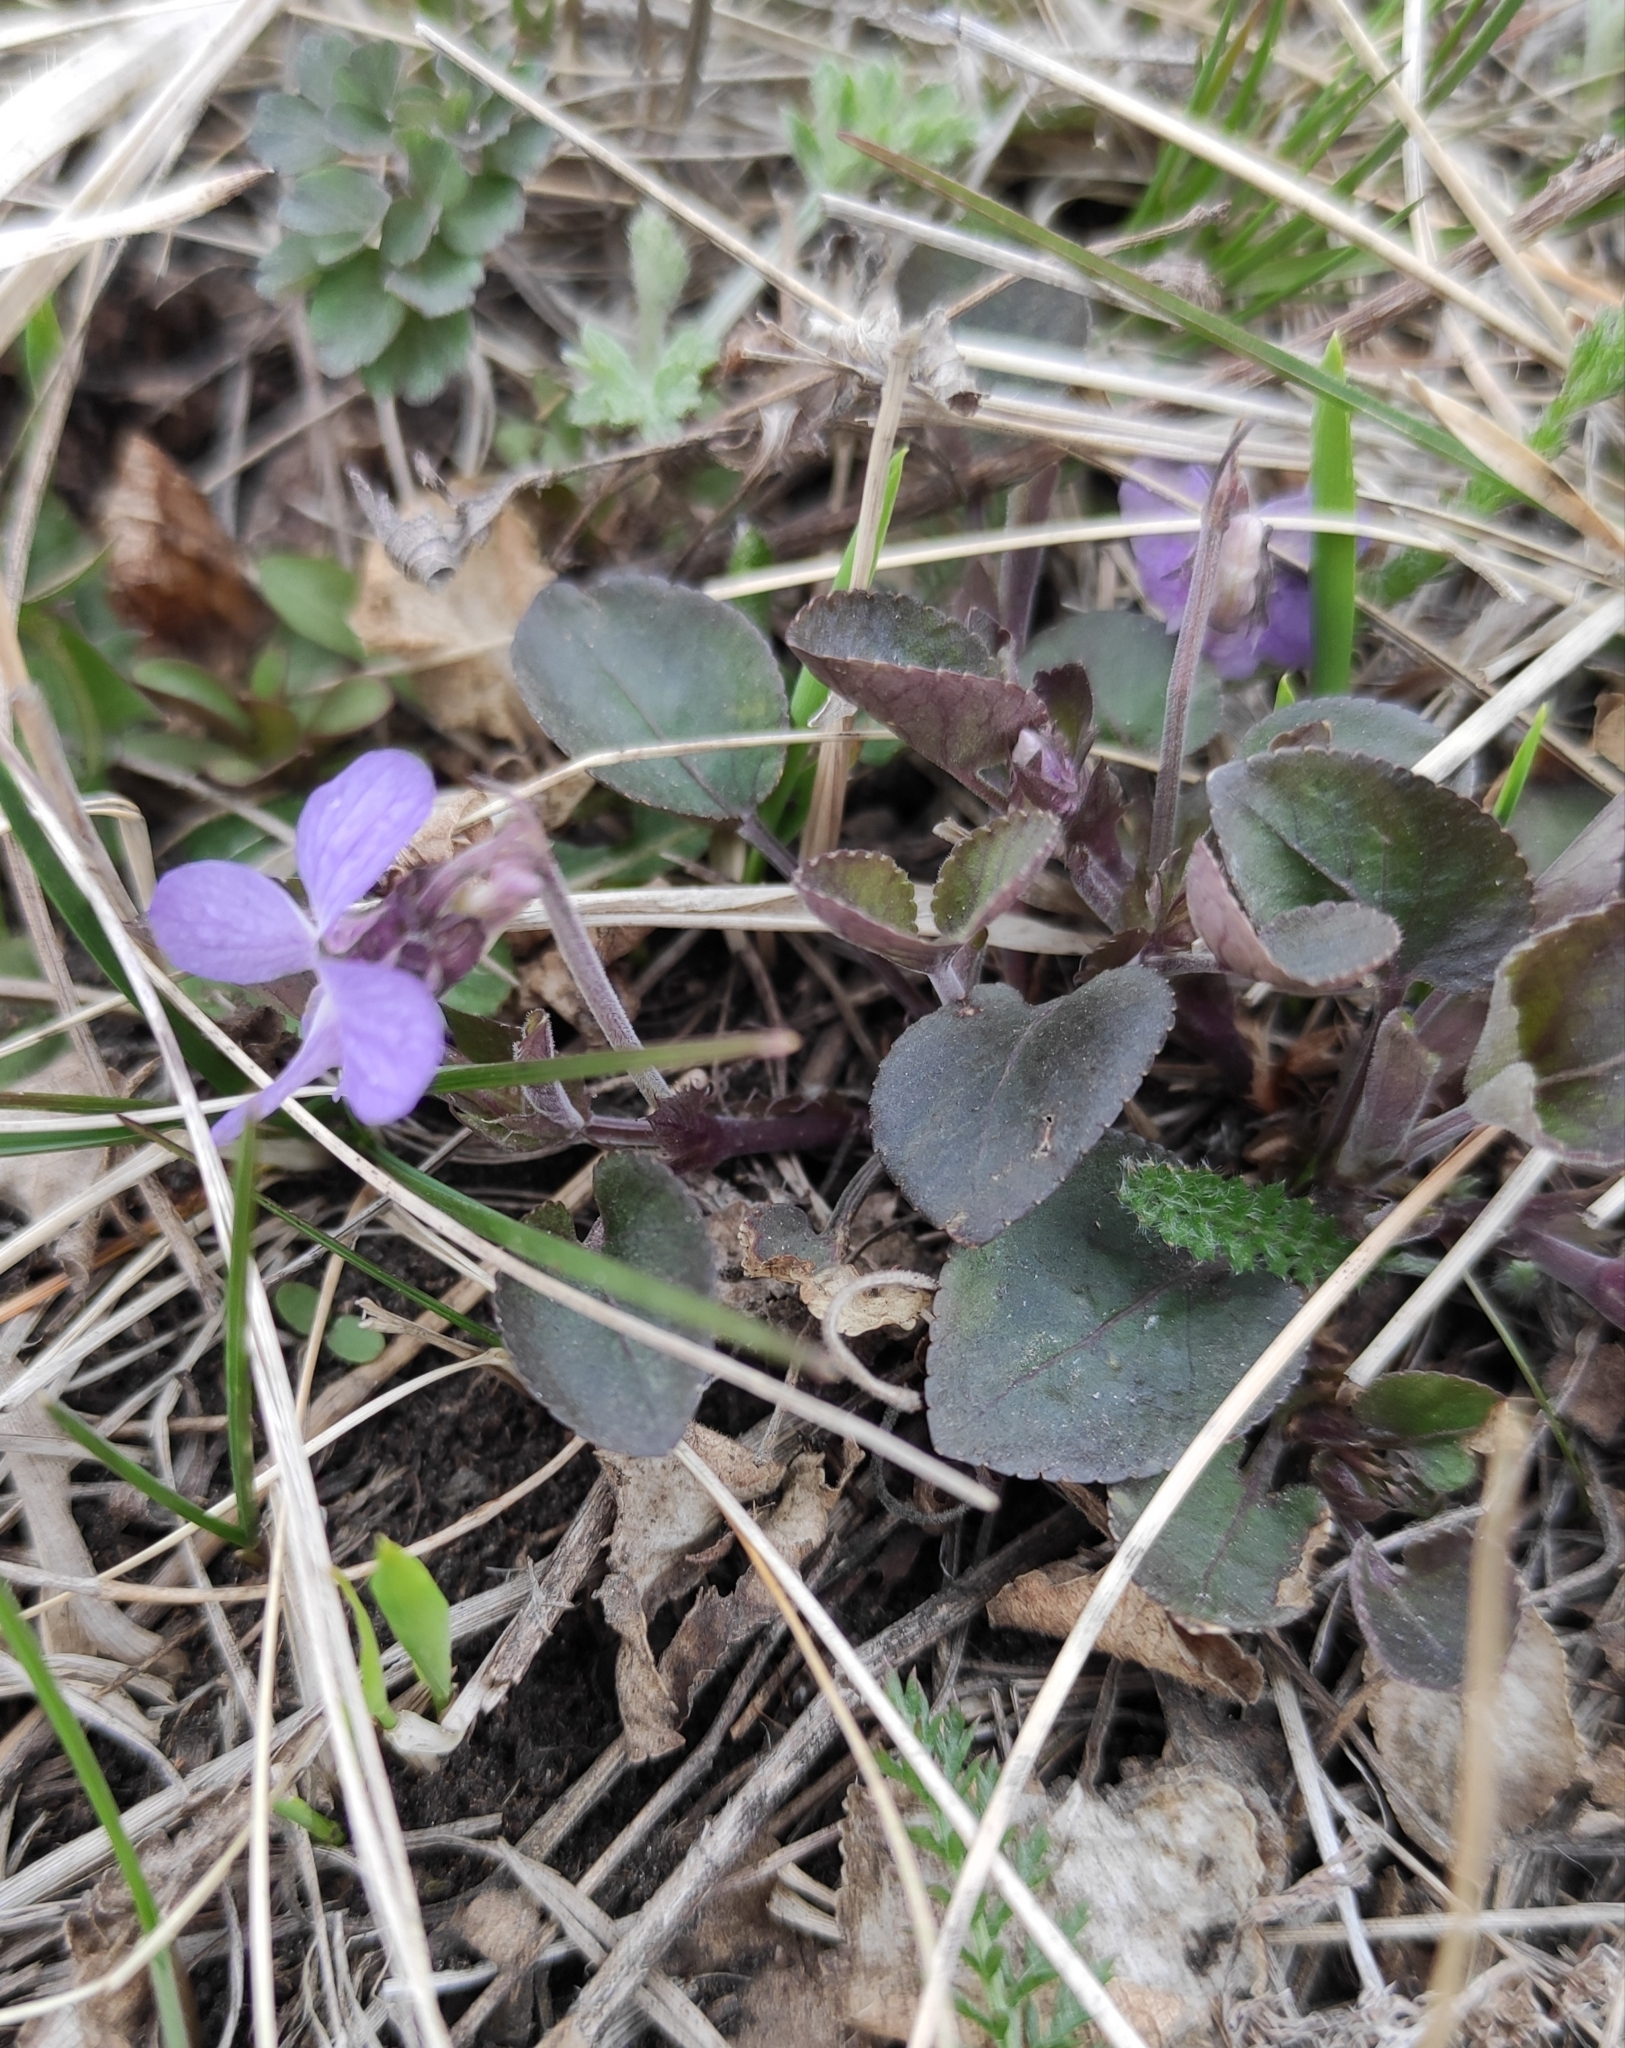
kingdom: Plantae
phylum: Tracheophyta
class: Magnoliopsida
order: Malpighiales
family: Violaceae
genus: Viola
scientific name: Viola rupestris
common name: Teesdale violet
